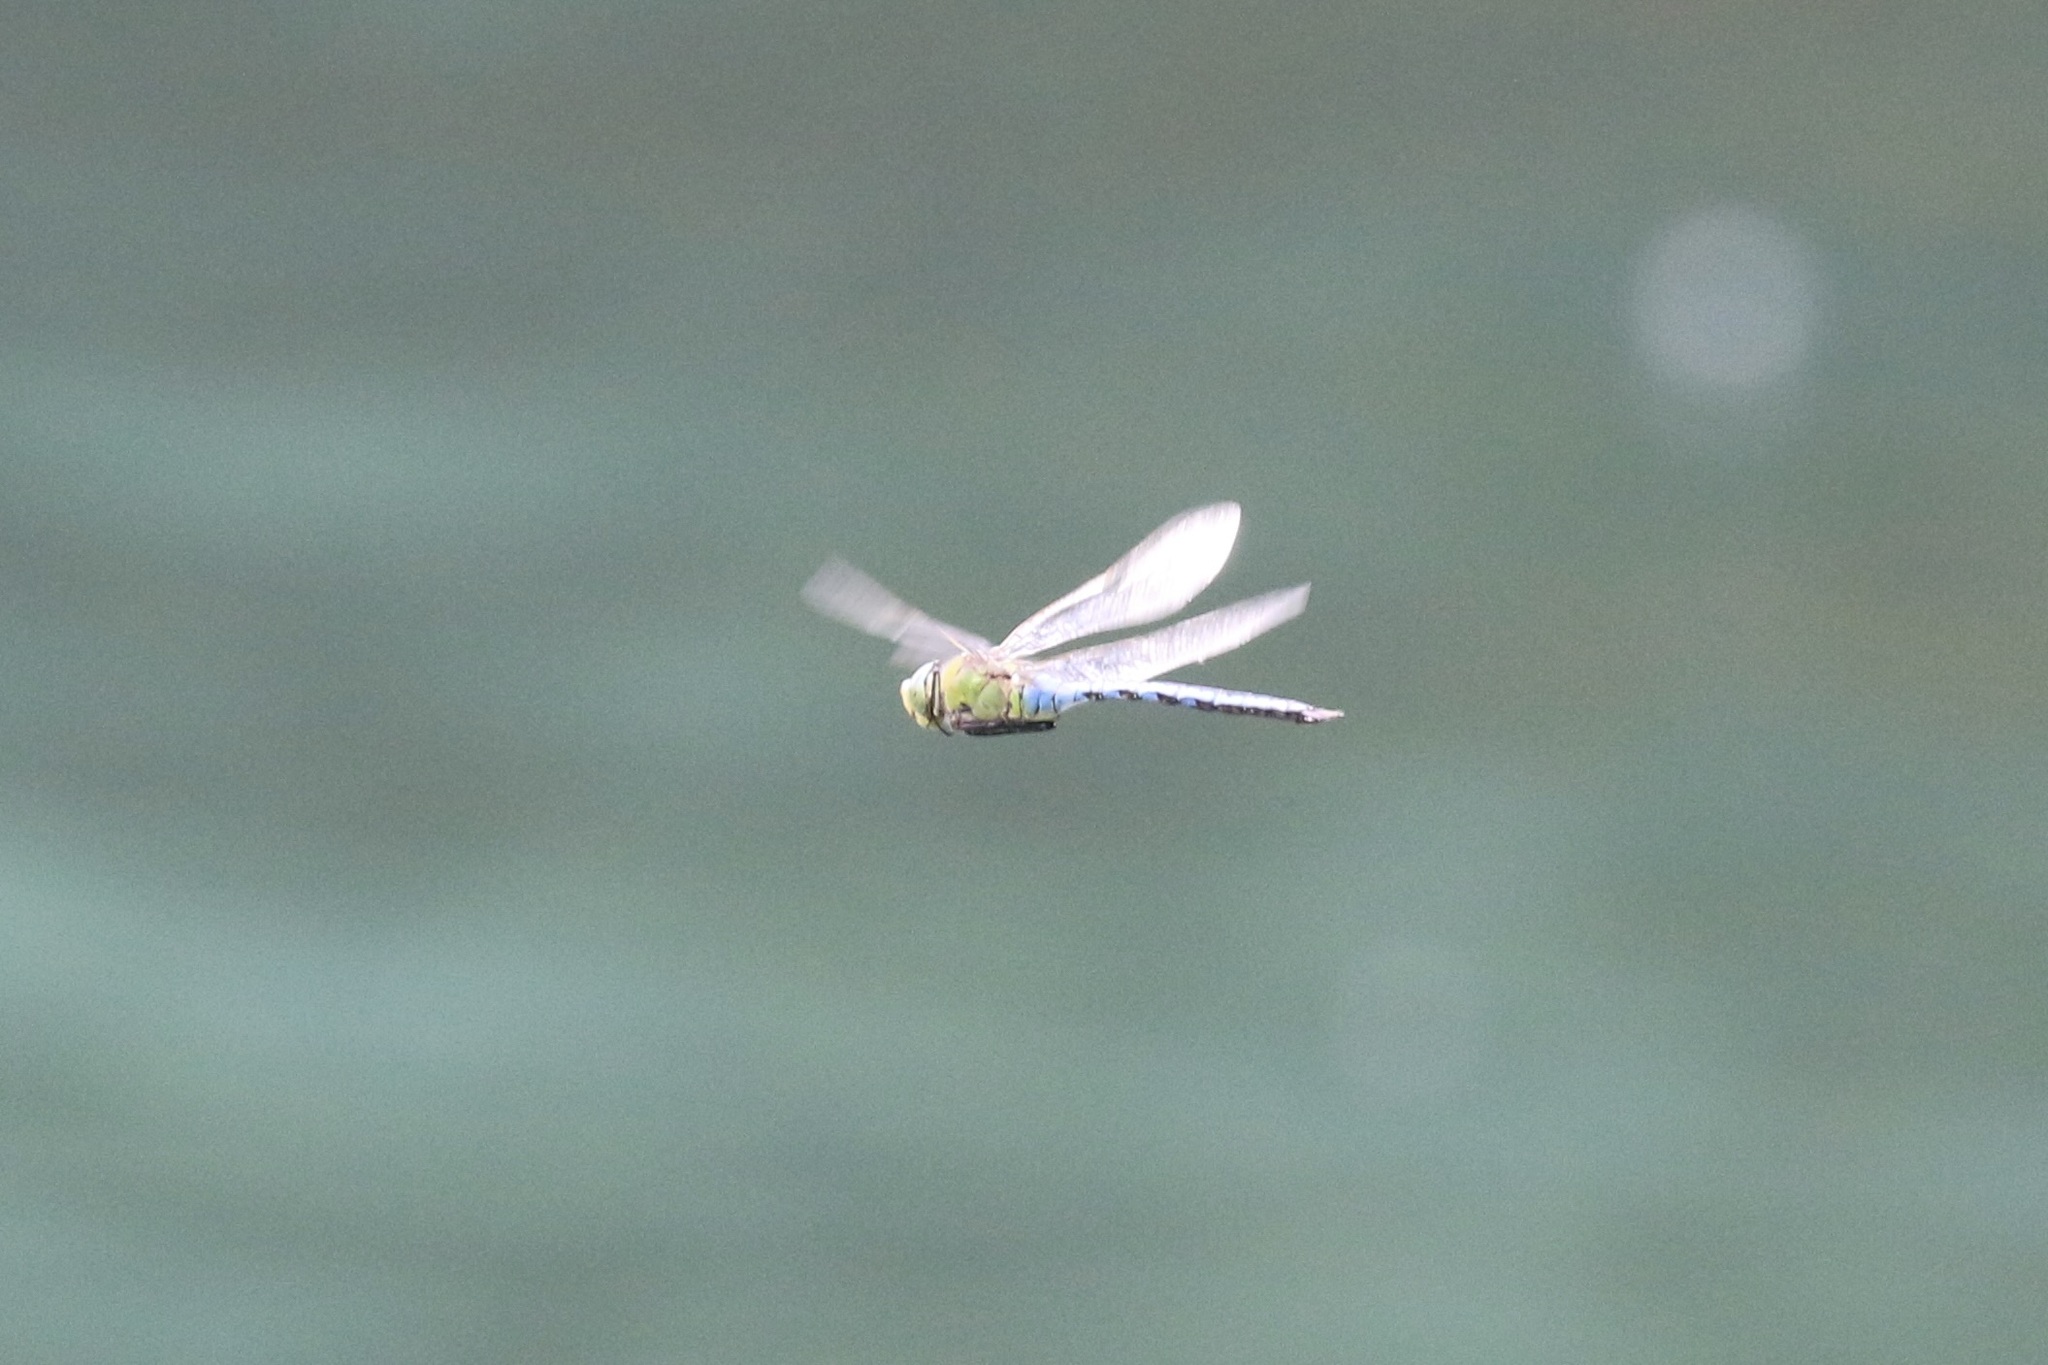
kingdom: Animalia
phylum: Arthropoda
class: Insecta
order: Odonata
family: Aeshnidae
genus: Anax
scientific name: Anax imperator
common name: Emperor dragonfly
